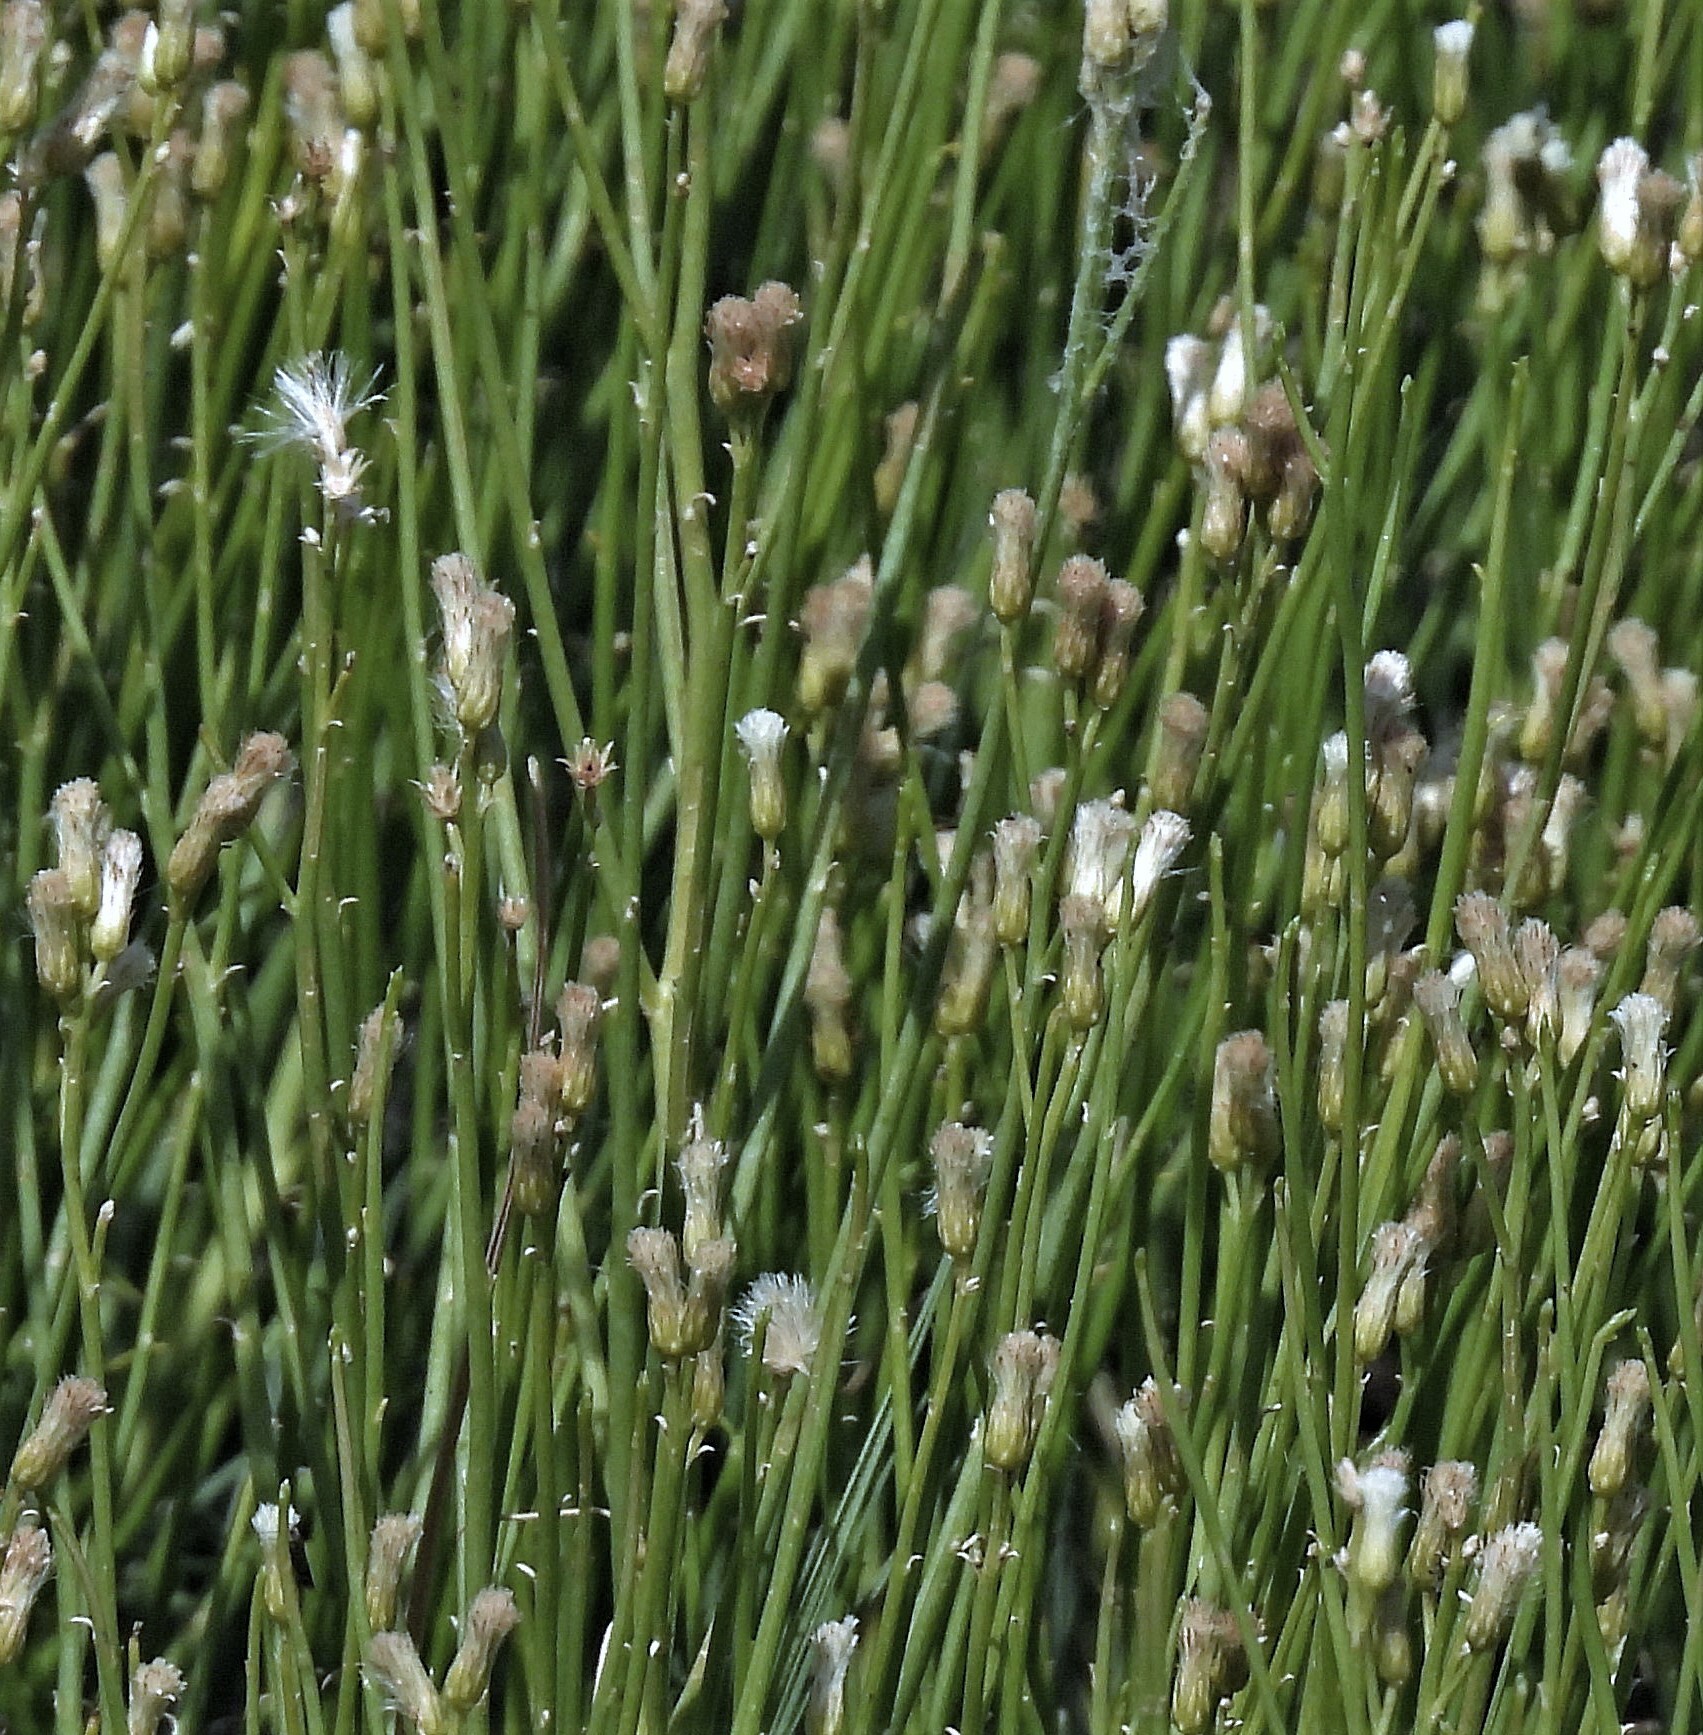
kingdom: Plantae
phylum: Tracheophyta
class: Magnoliopsida
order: Asterales
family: Asteraceae
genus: Pseudobaccharis
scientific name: Pseudobaccharis spartioides
